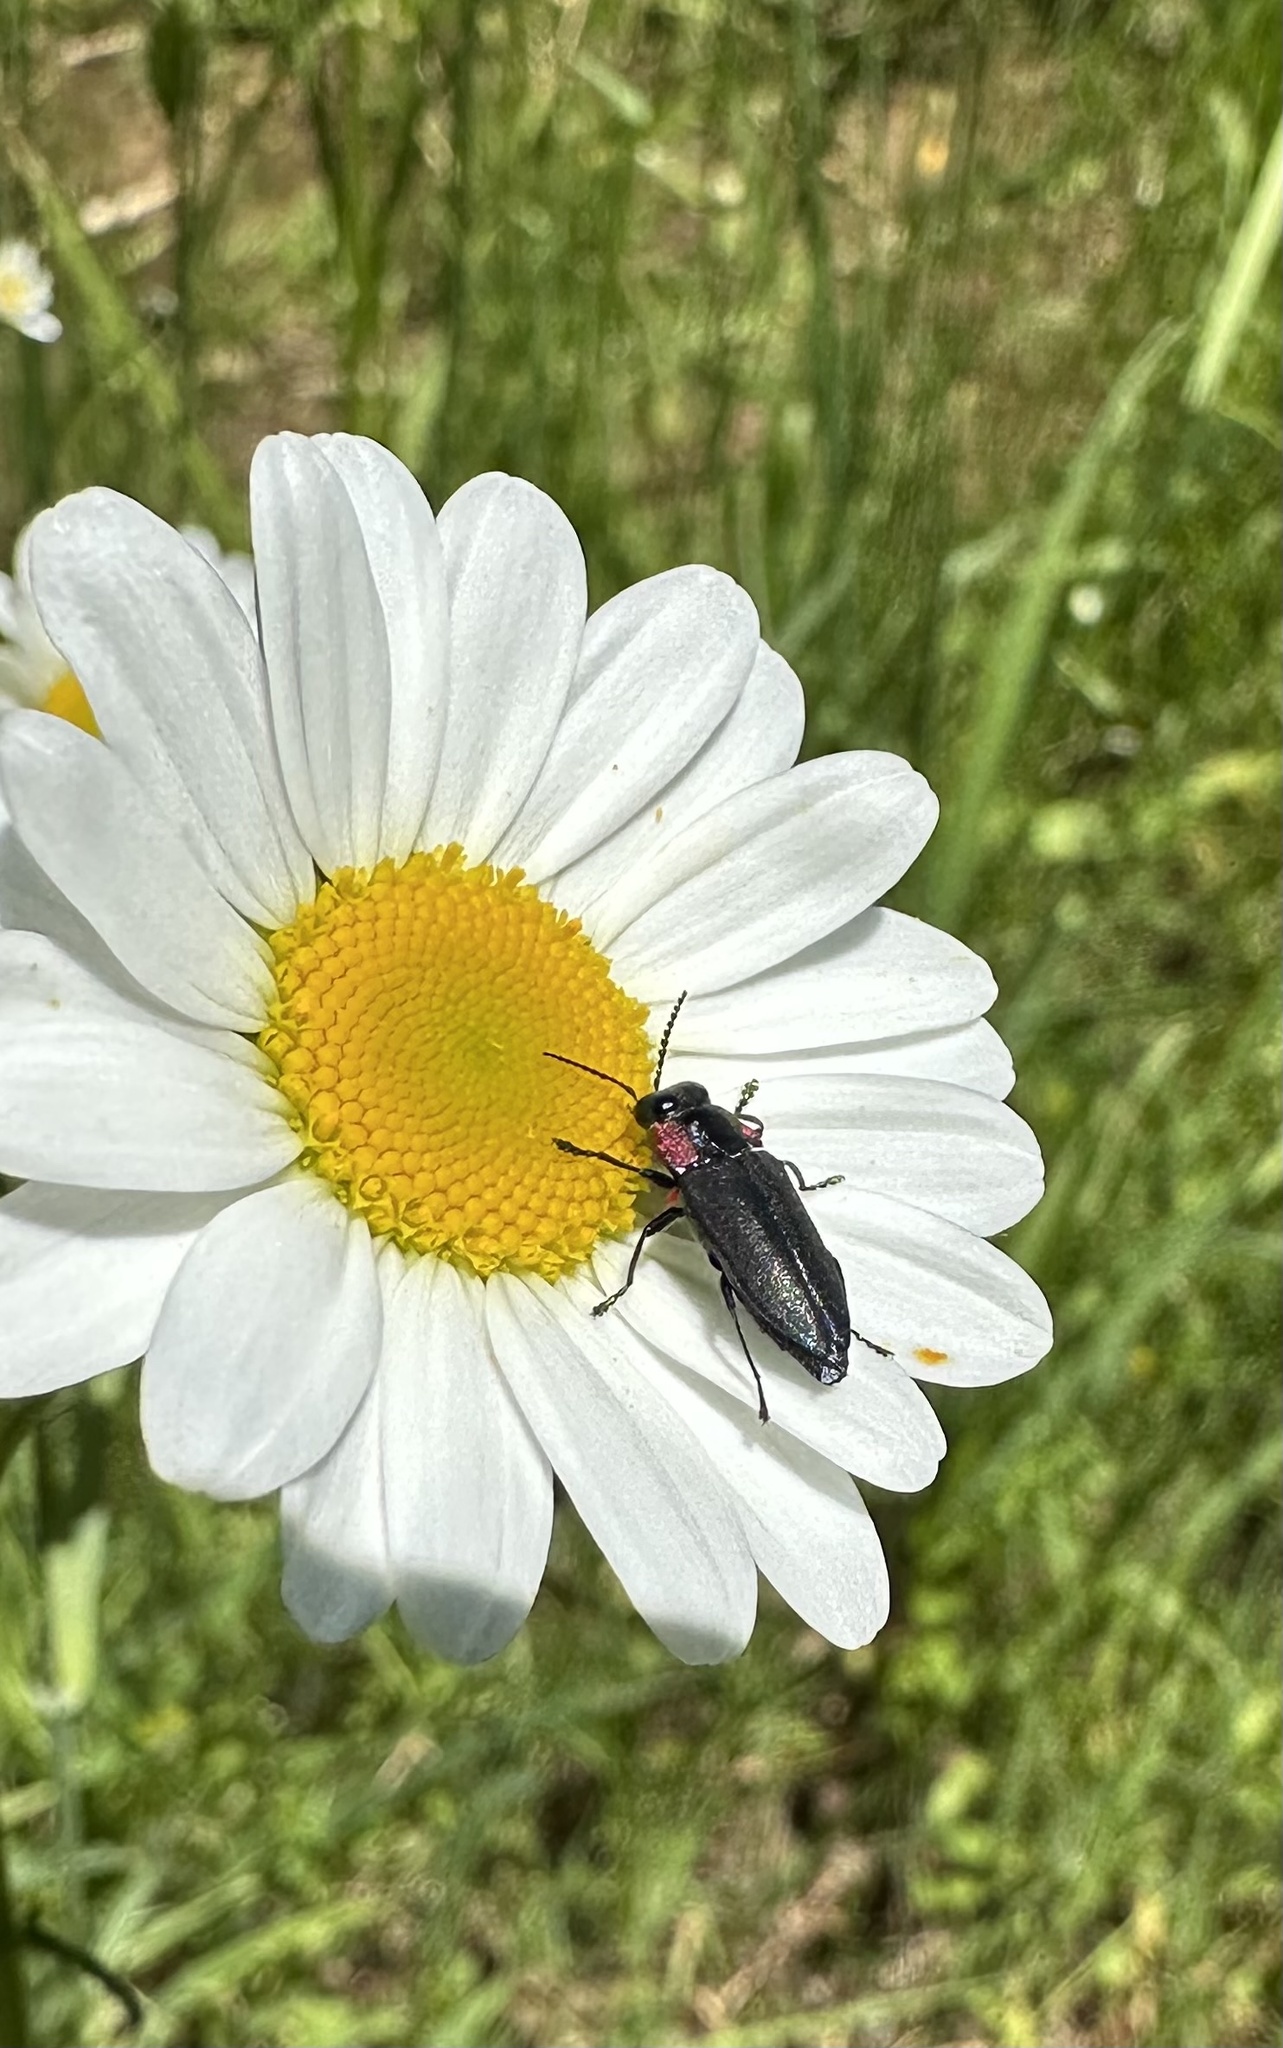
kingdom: Animalia
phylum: Arthropoda
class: Insecta
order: Coleoptera
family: Buprestidae
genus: Romanophora
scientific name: Romanophora verecunda
